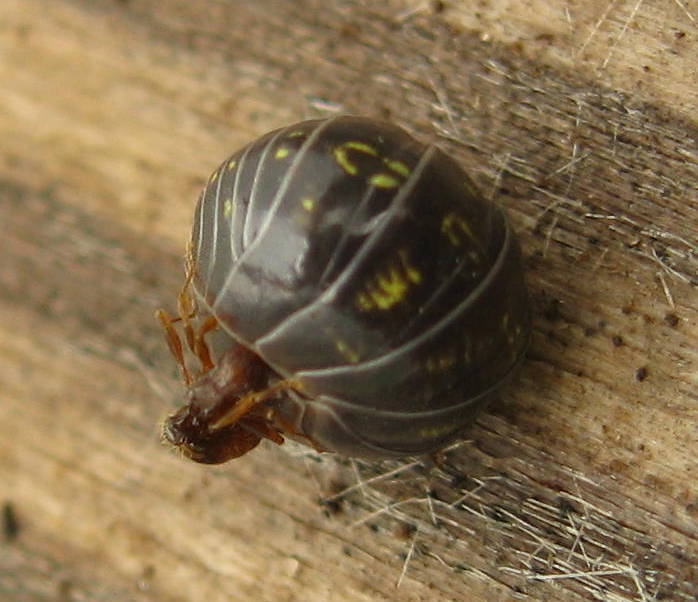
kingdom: Animalia
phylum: Arthropoda
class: Malacostraca
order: Isopoda
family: Armadillidiidae
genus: Armadillidium
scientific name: Armadillidium vulgare
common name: Common pill woodlouse
